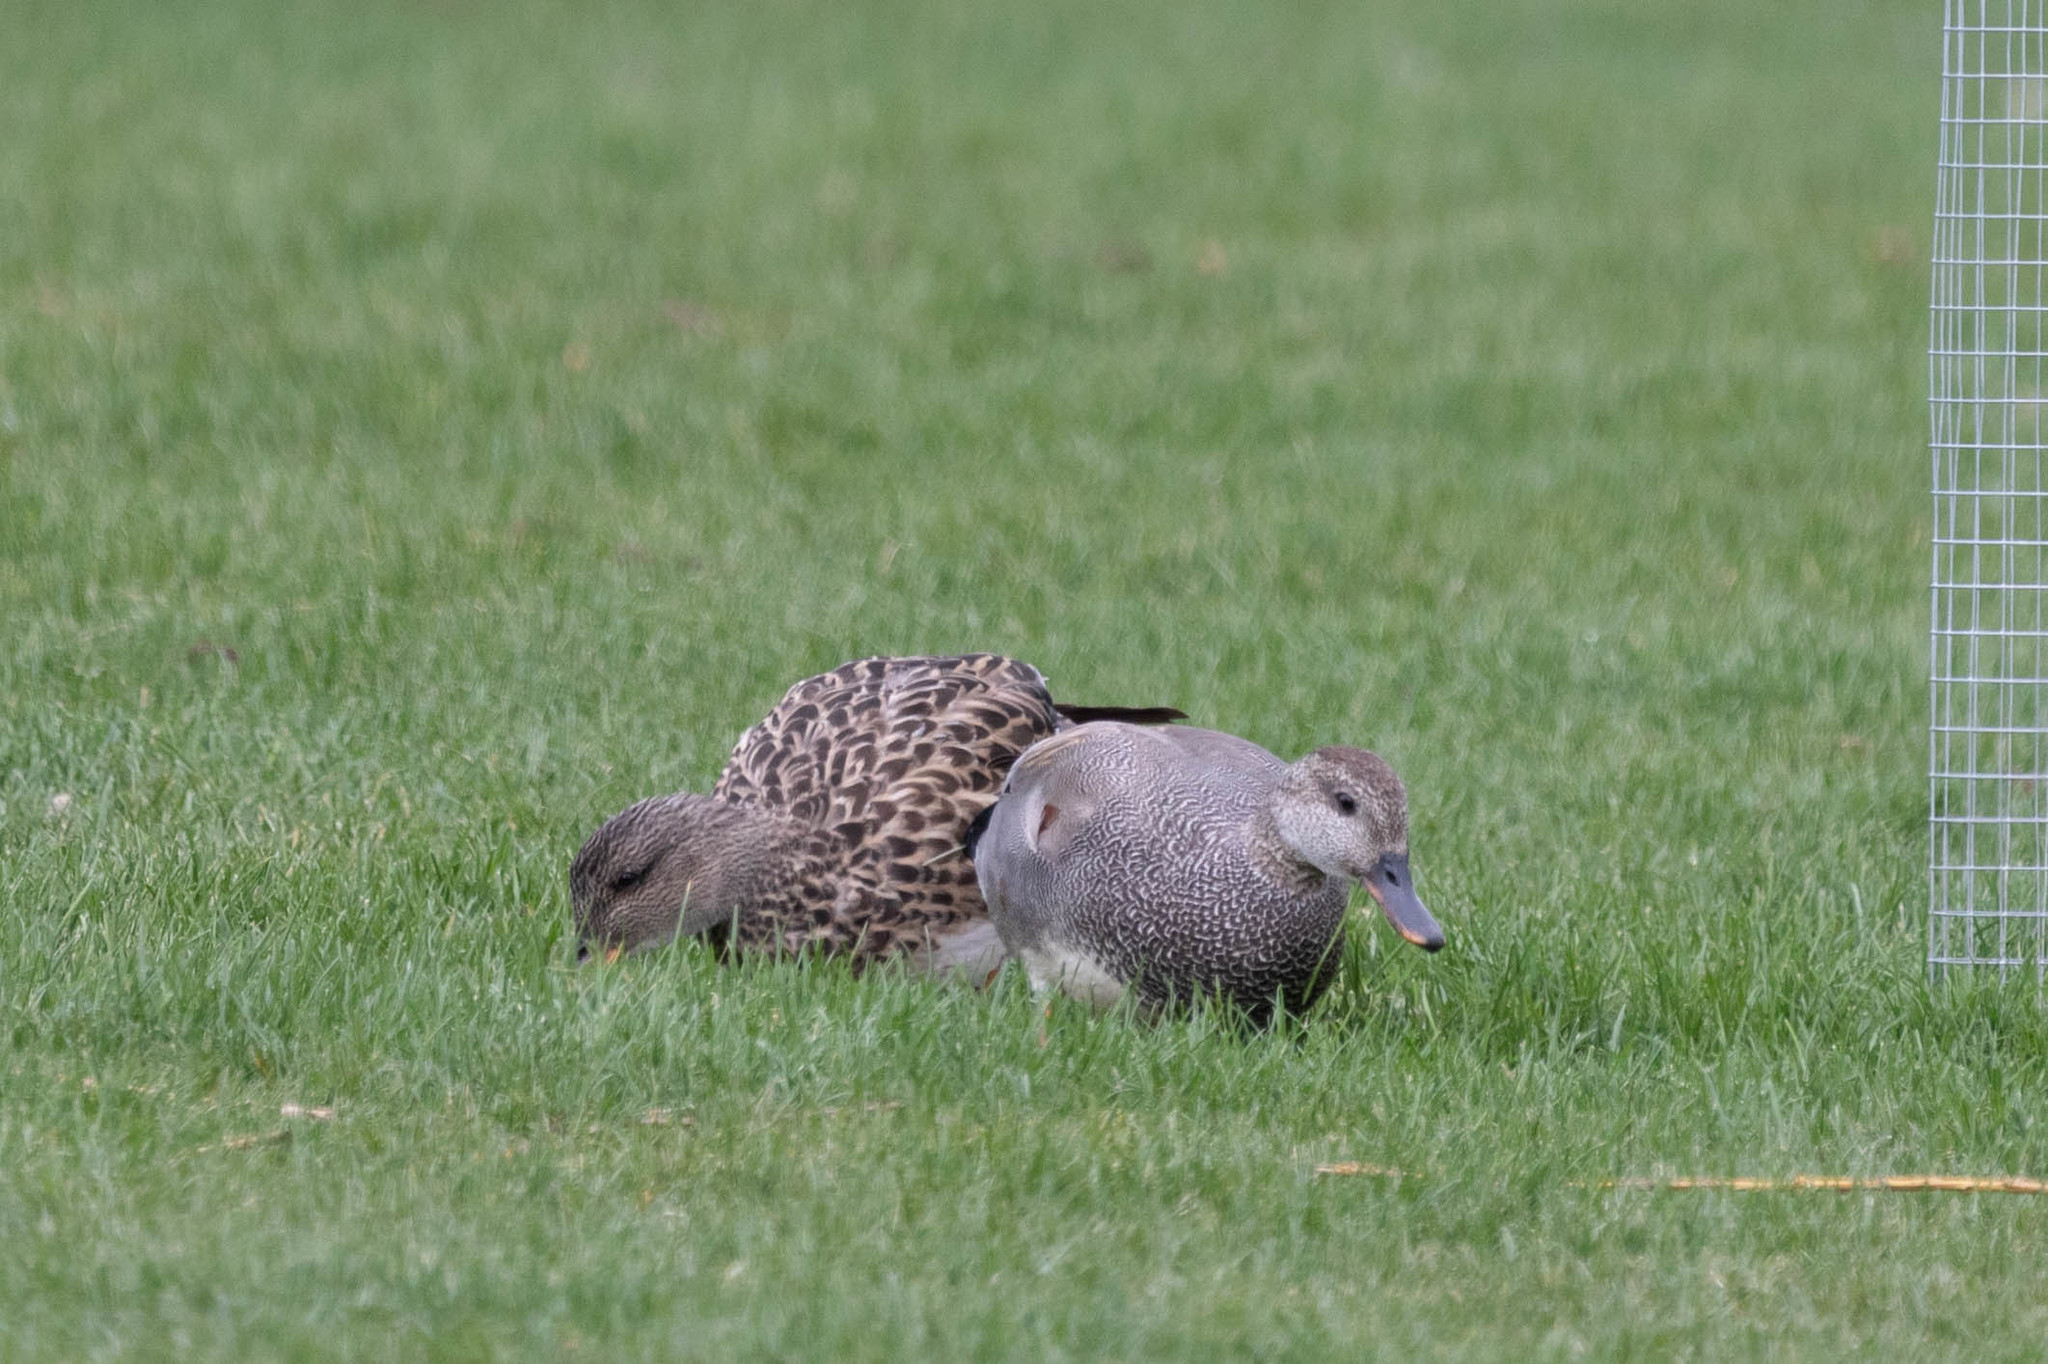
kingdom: Animalia
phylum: Chordata
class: Aves
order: Anseriformes
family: Anatidae
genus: Mareca
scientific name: Mareca strepera
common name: Gadwall
